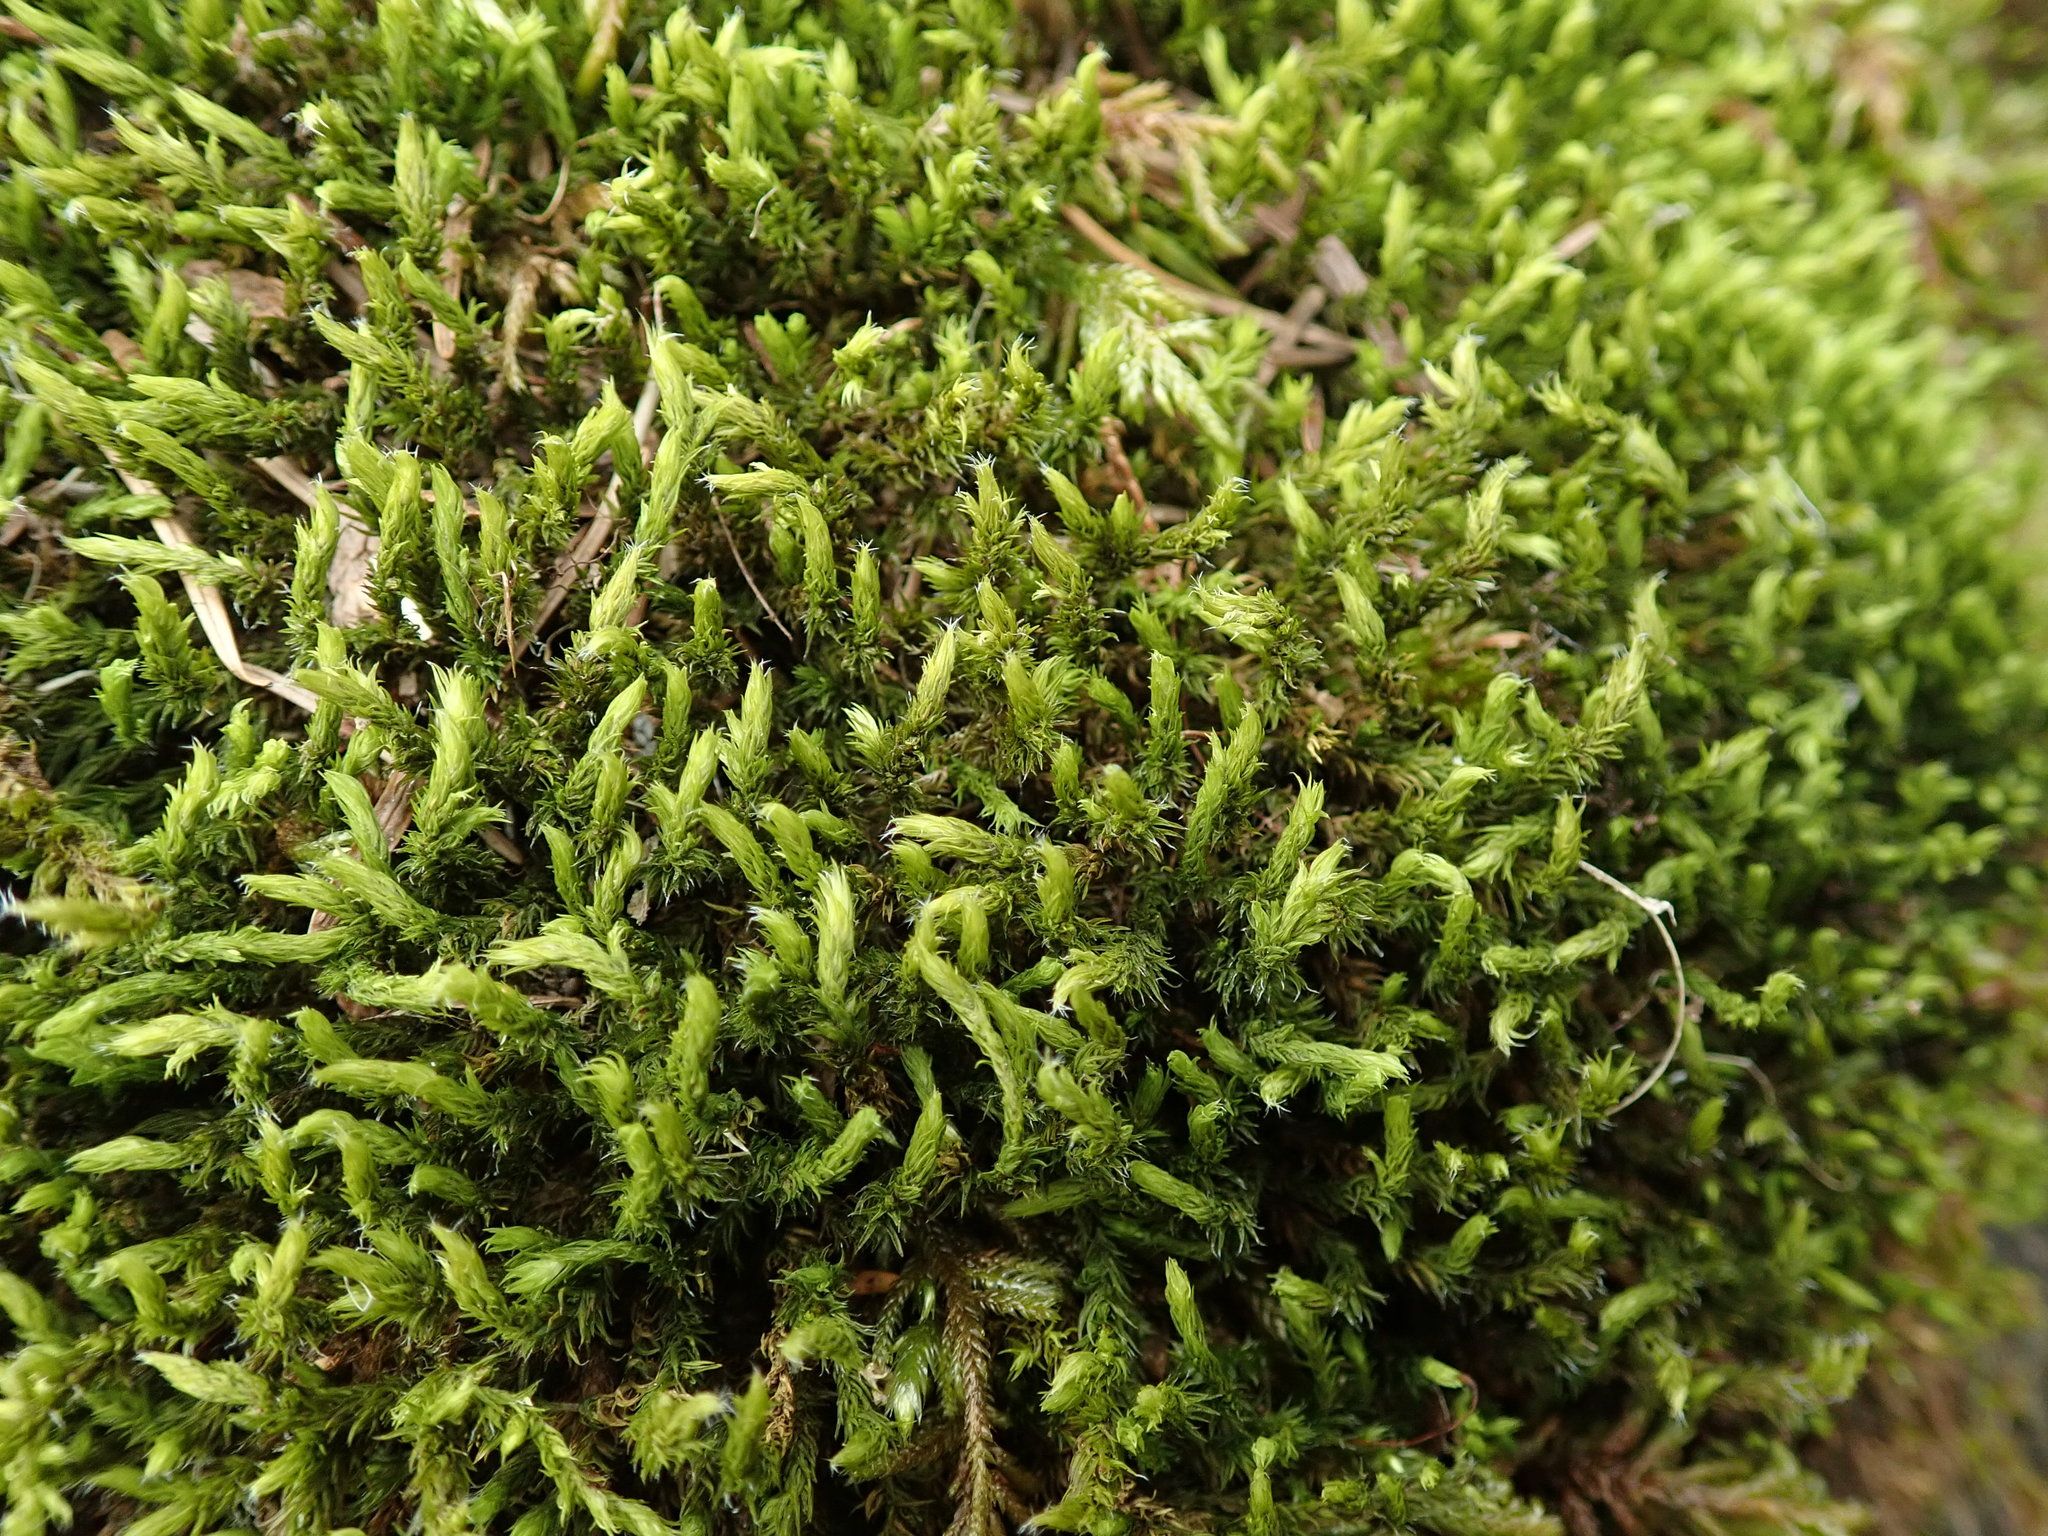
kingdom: Plantae
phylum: Bryophyta
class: Bryopsida
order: Grimmiales
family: Grimmiaceae
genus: Frisvollia
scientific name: Frisvollia varia
